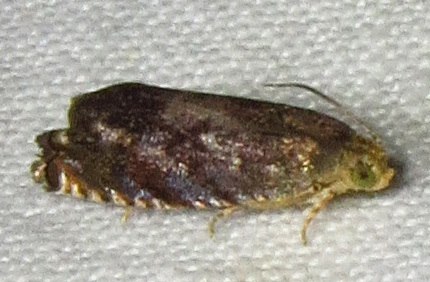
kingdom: Animalia
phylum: Arthropoda
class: Insecta
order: Lepidoptera
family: Tortricidae
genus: Cydia
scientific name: Cydia caryana
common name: Hickory shuckworm moth
